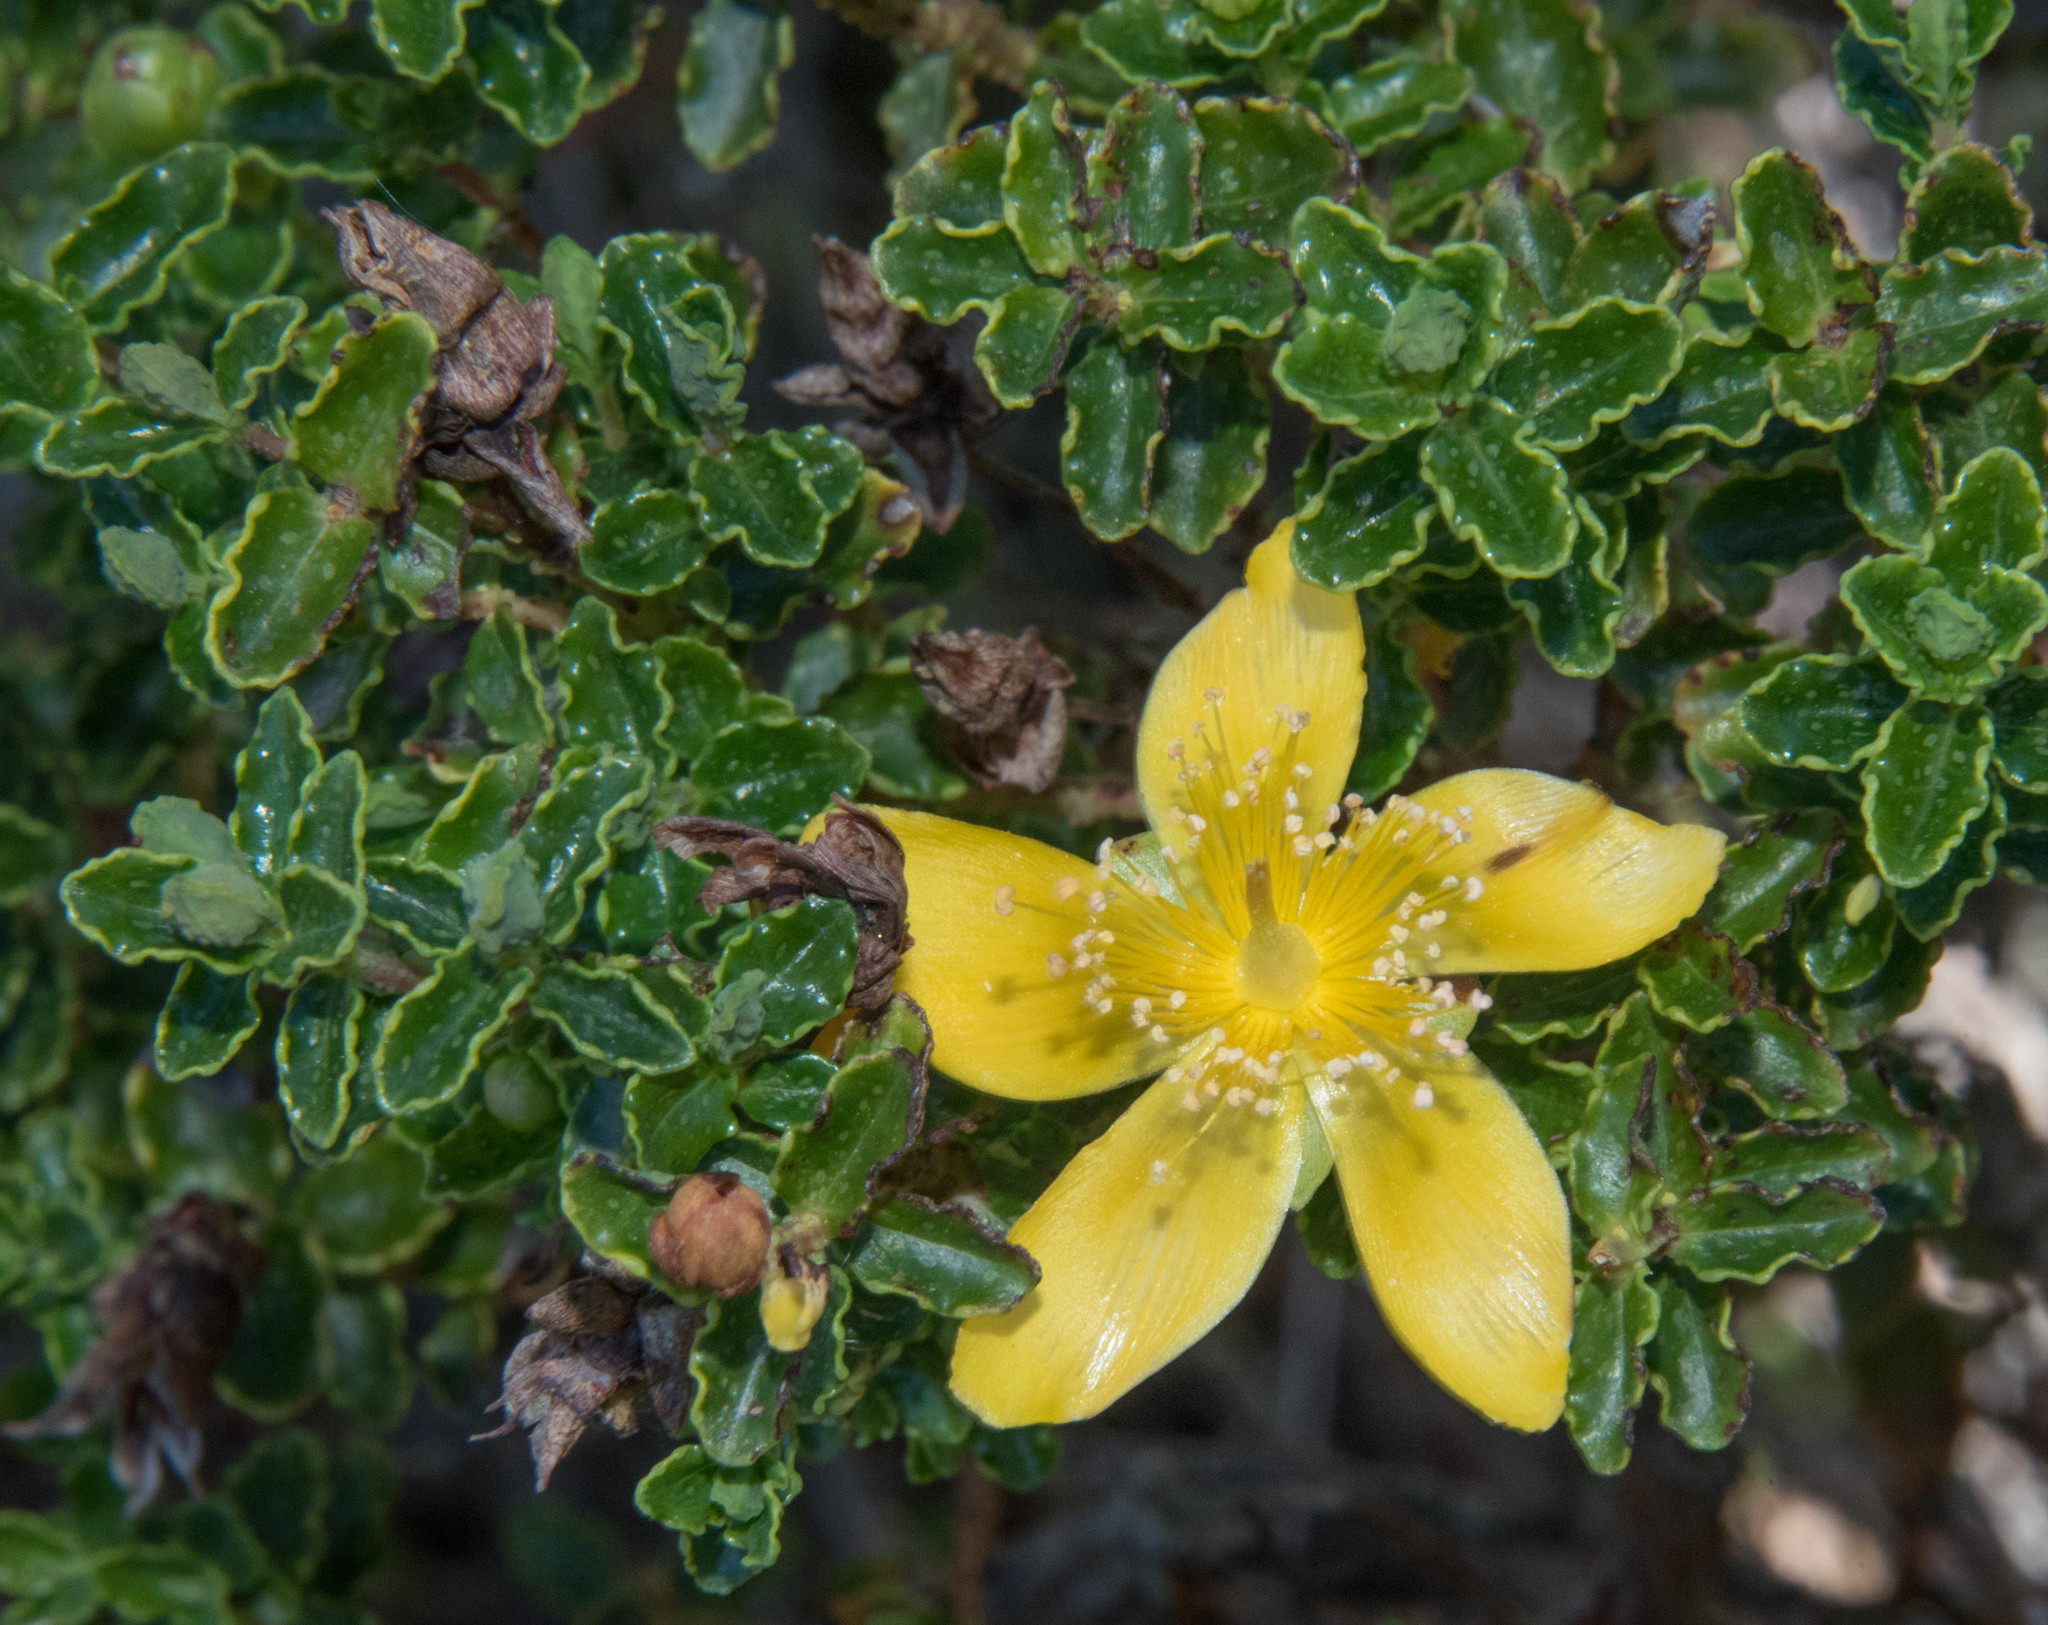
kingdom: Plantae
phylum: Tracheophyta
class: Magnoliopsida
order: Malpighiales
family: Hypericaceae
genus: Hypericum
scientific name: Hypericum balearicum
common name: Majorca st john's wort
